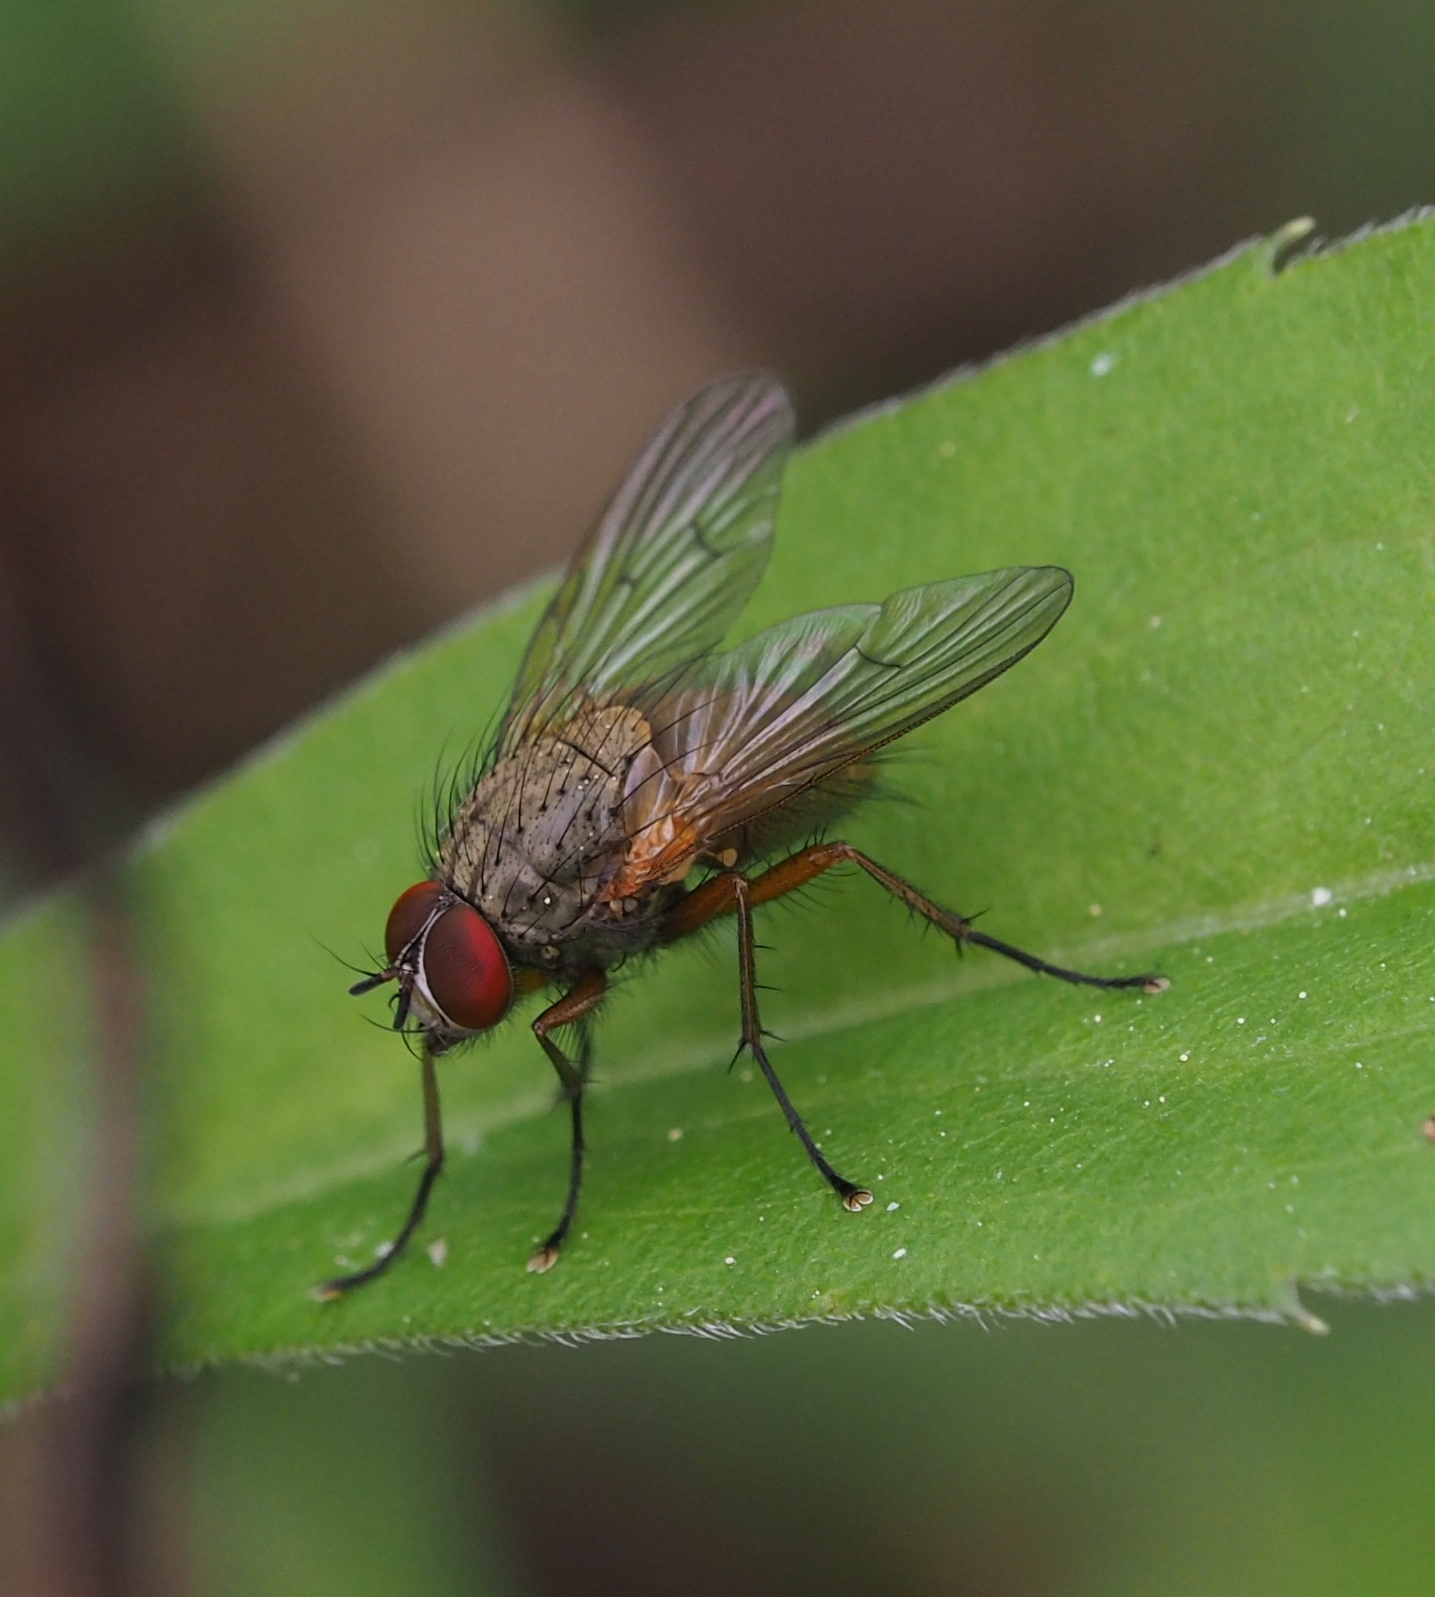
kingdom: Animalia
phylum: Arthropoda
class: Insecta
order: Diptera
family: Muscidae
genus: Helina
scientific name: Helina impuncta
